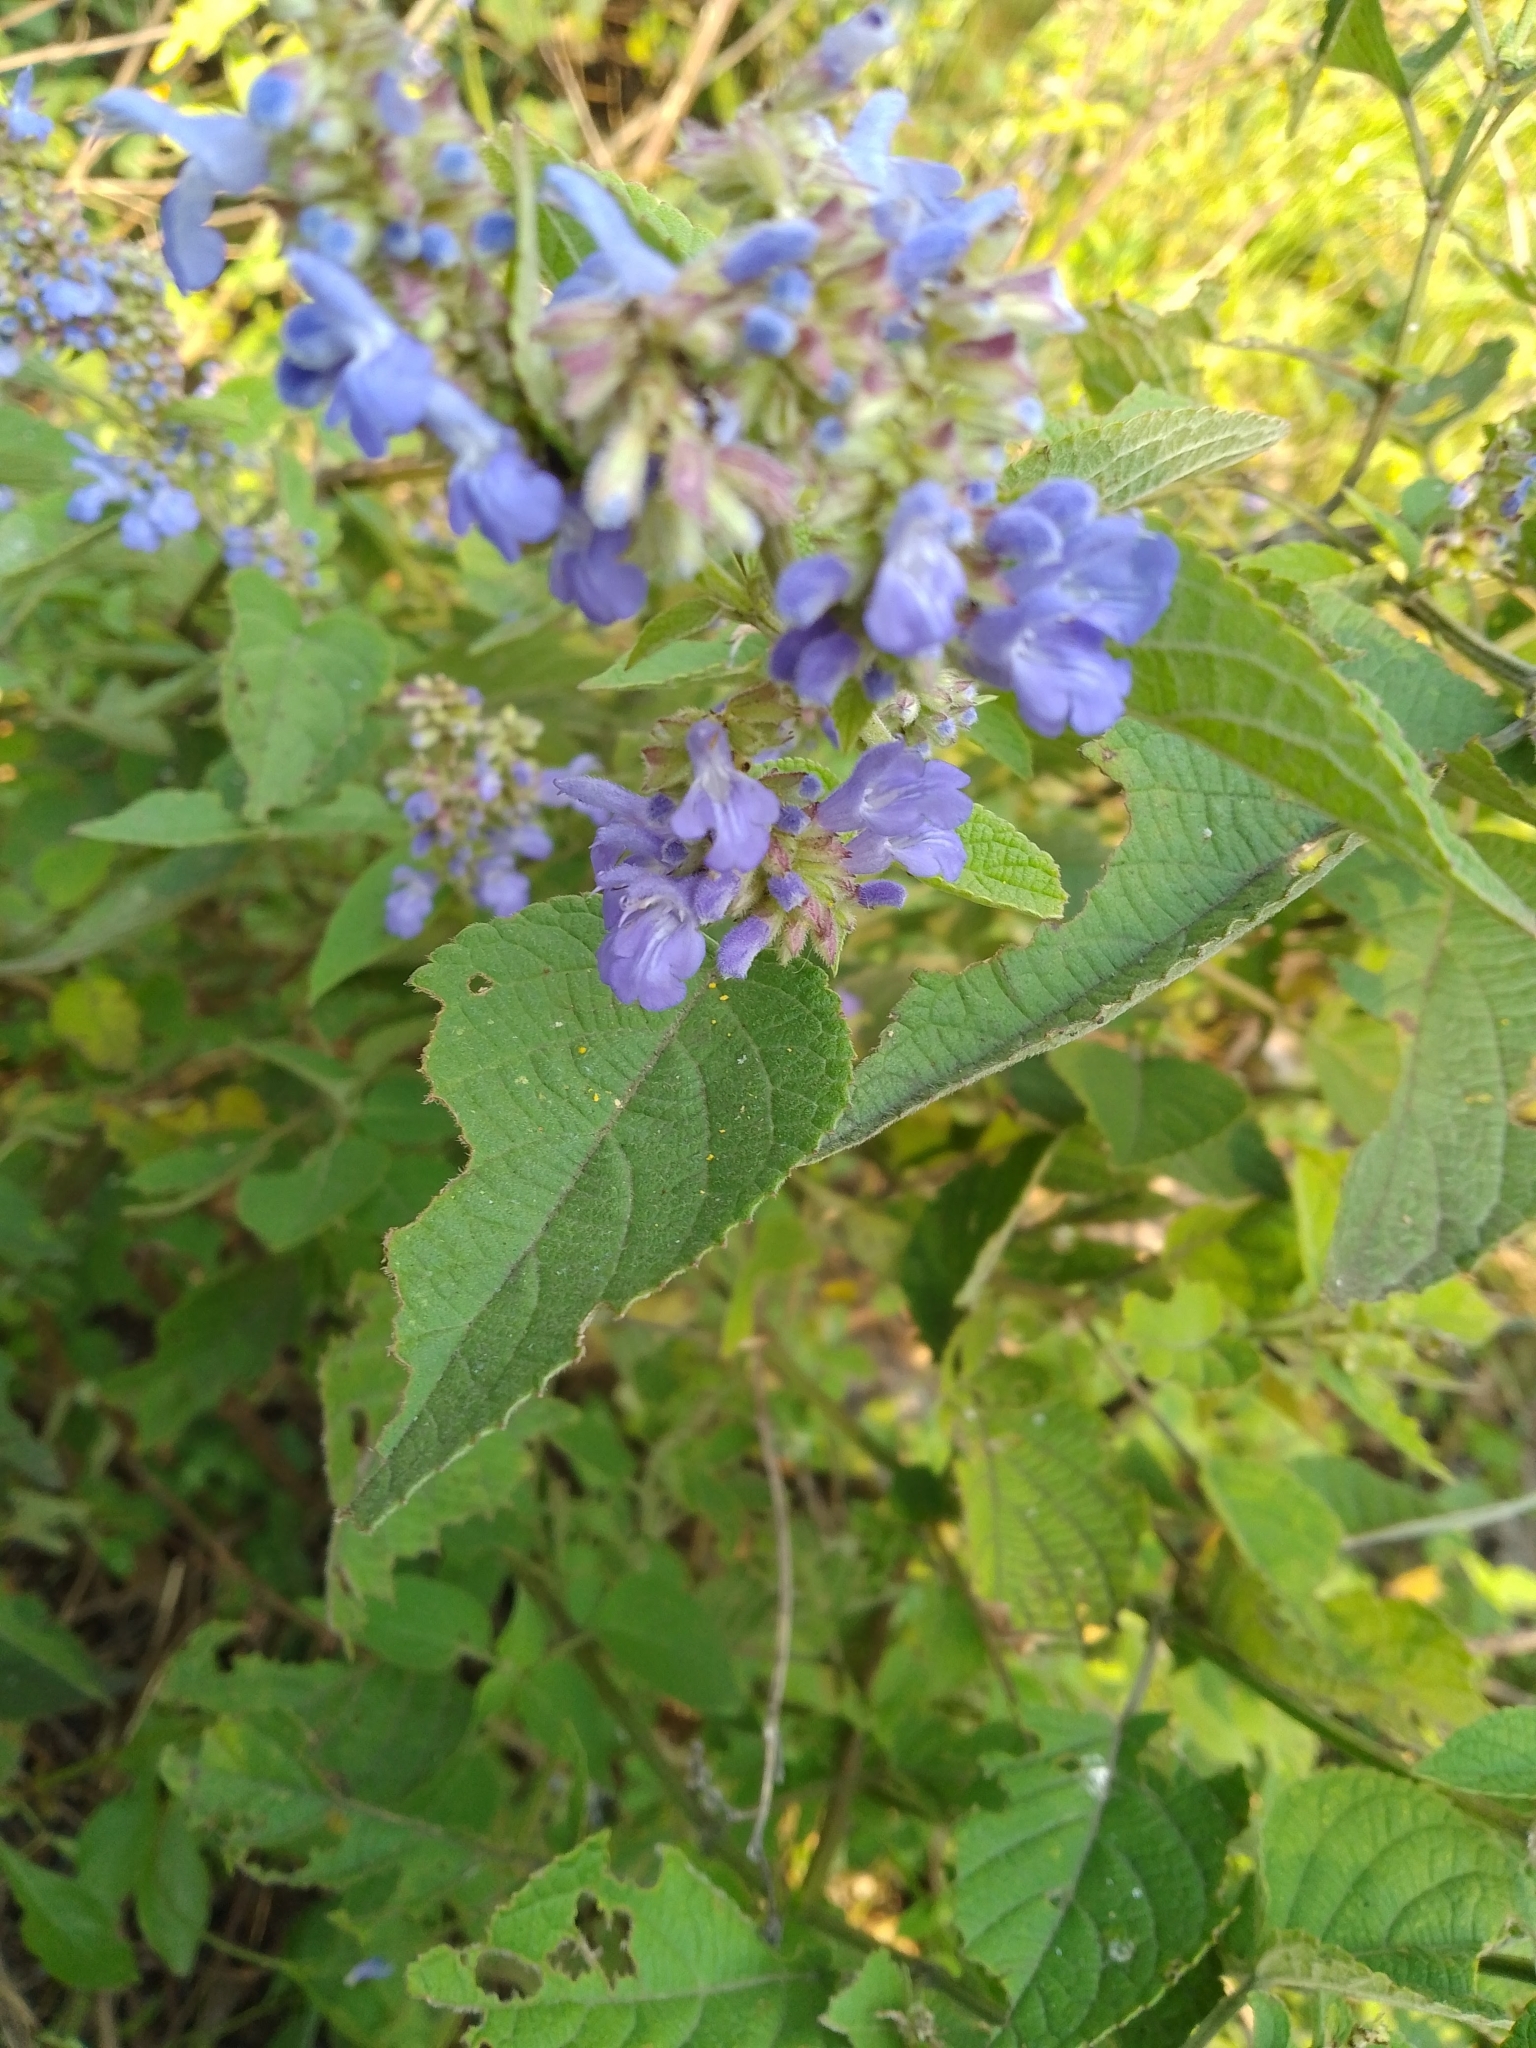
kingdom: Plantae
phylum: Tracheophyta
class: Magnoliopsida
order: Lamiales
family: Lamiaceae
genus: Salvia
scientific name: Salvia polystachia
